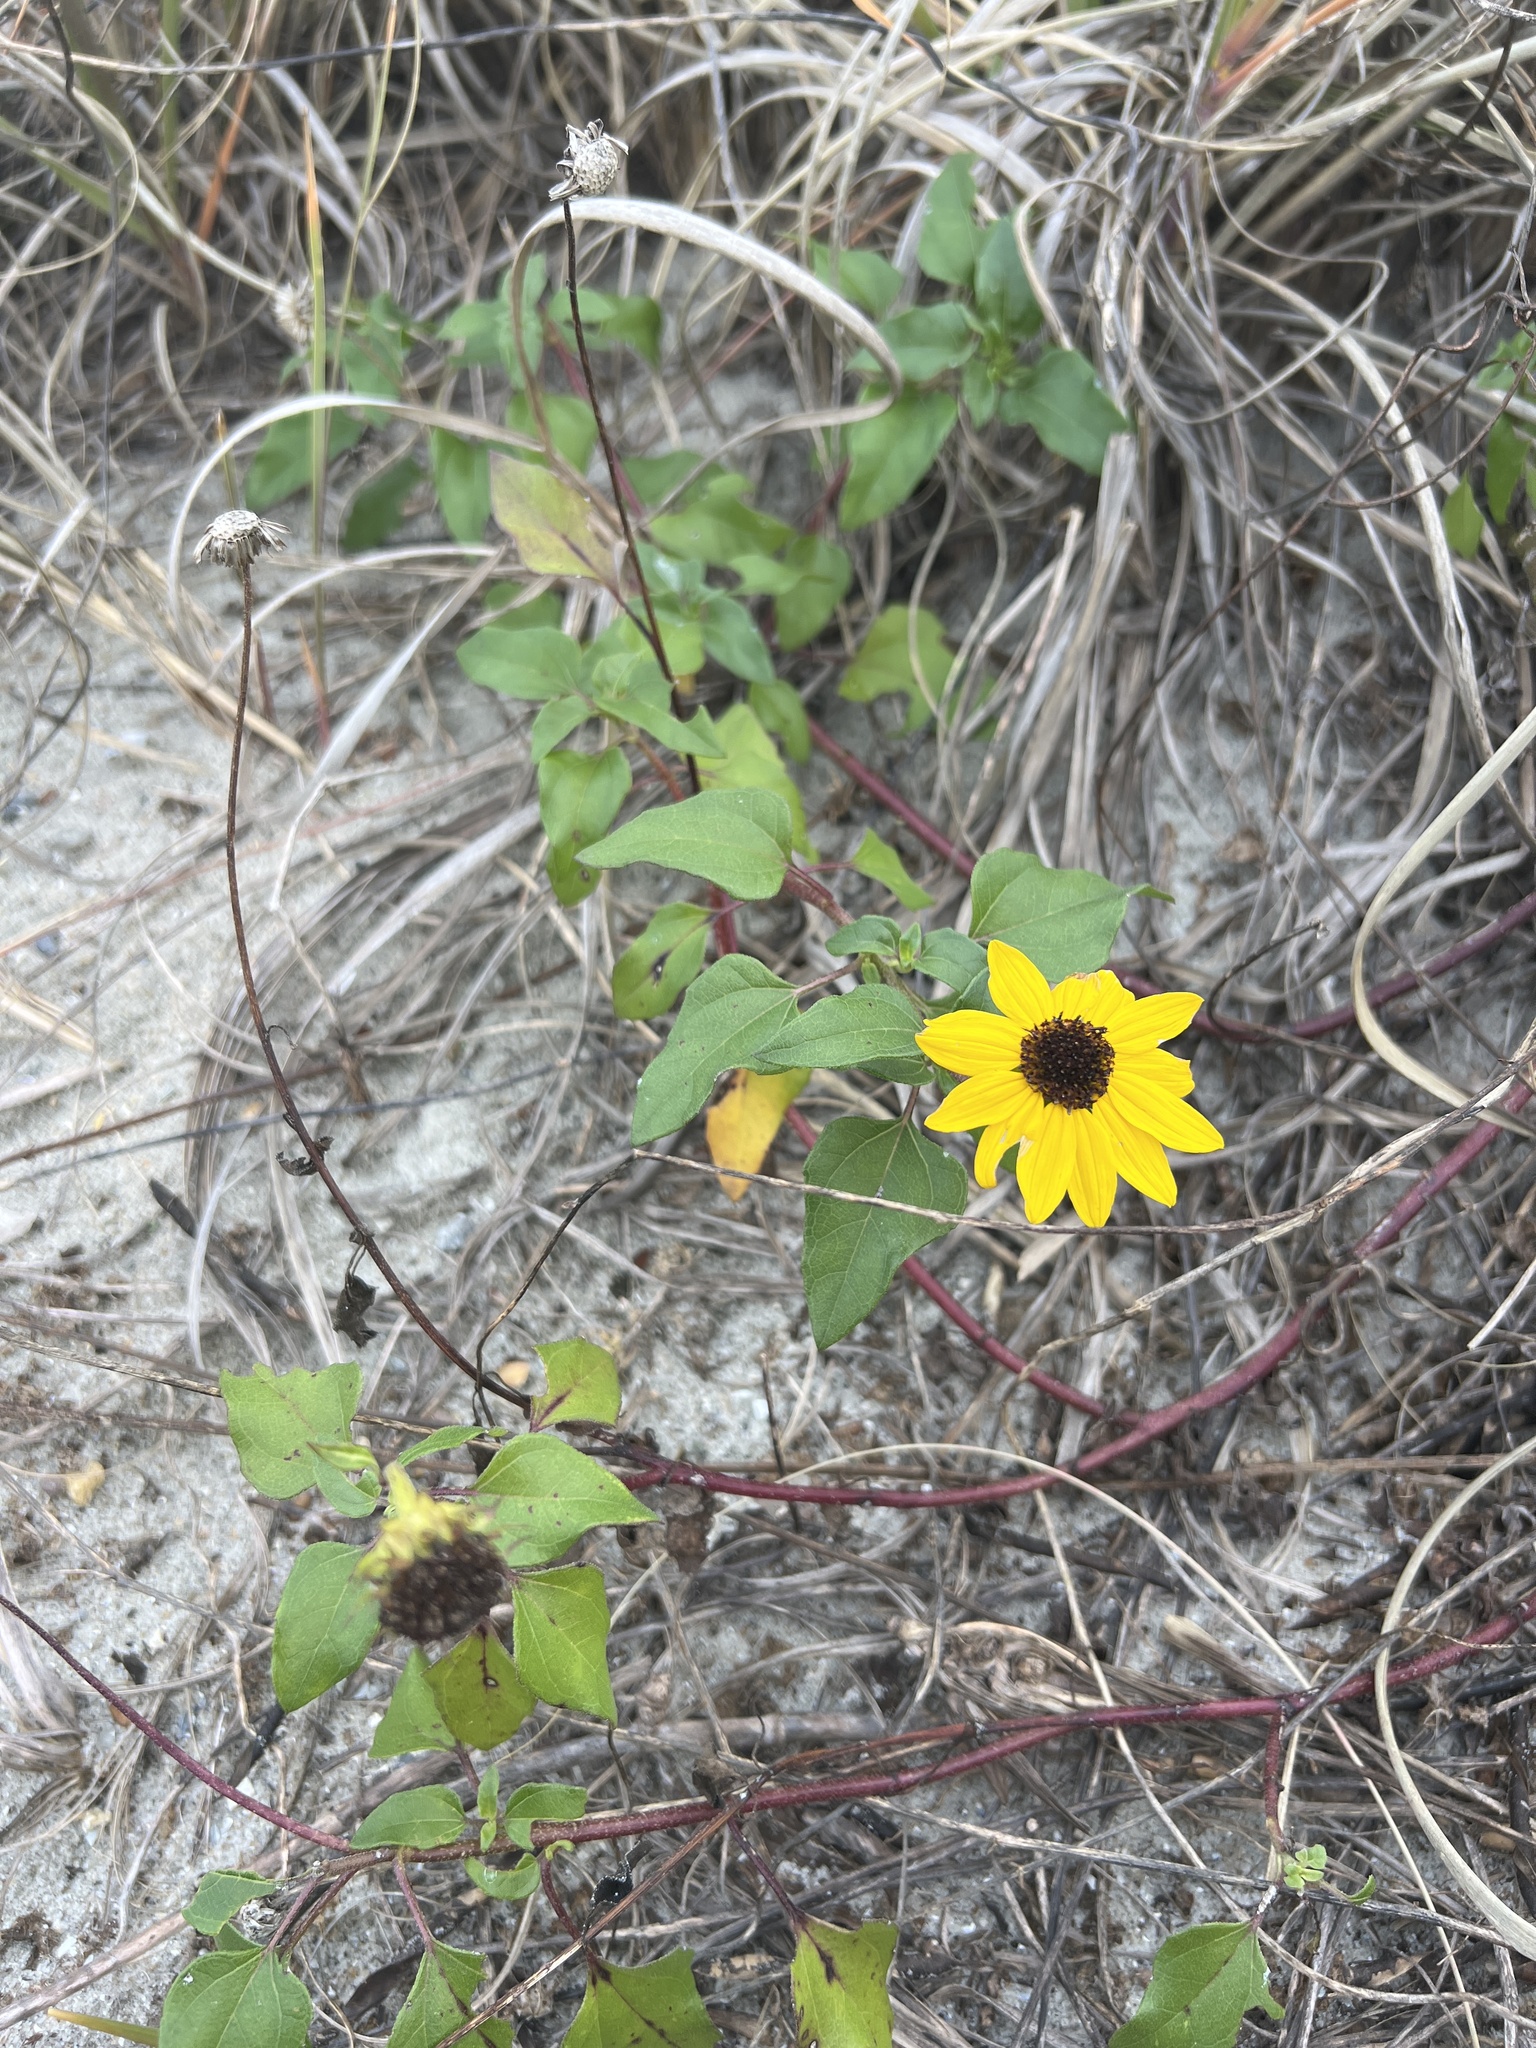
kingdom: Plantae
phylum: Tracheophyta
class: Magnoliopsida
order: Asterales
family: Asteraceae
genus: Helianthus
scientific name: Helianthus debilis
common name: Weak sunflower
